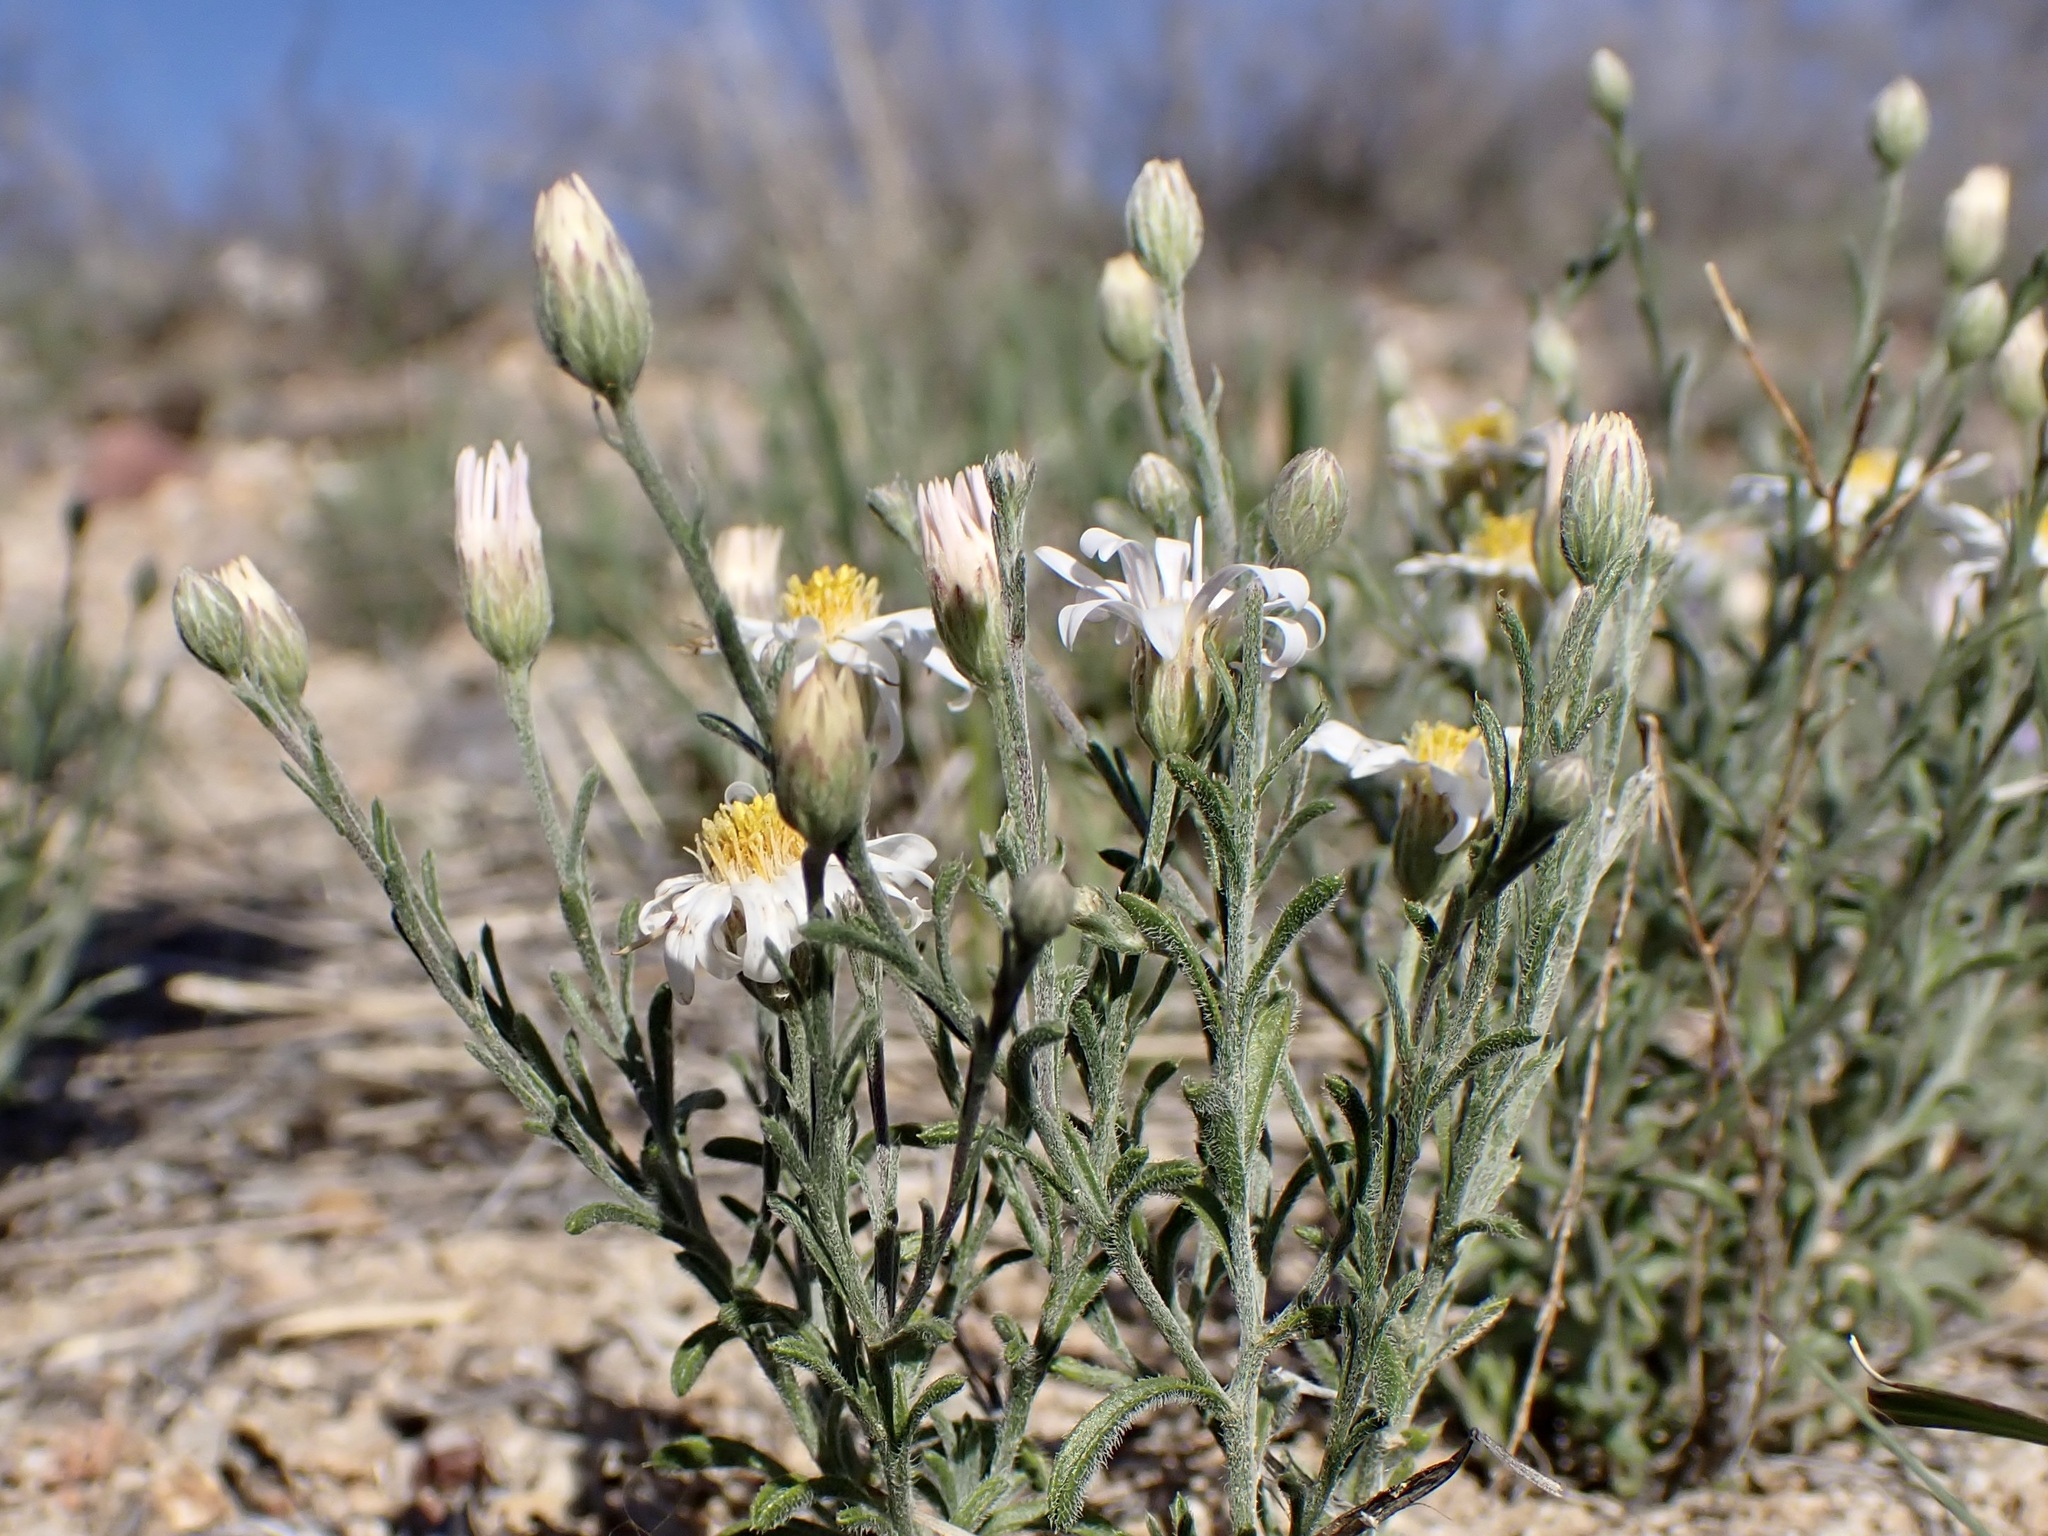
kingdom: Plantae
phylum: Tracheophyta
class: Magnoliopsida
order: Asterales
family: Asteraceae
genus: Chaetopappa
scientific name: Chaetopappa ericoides
